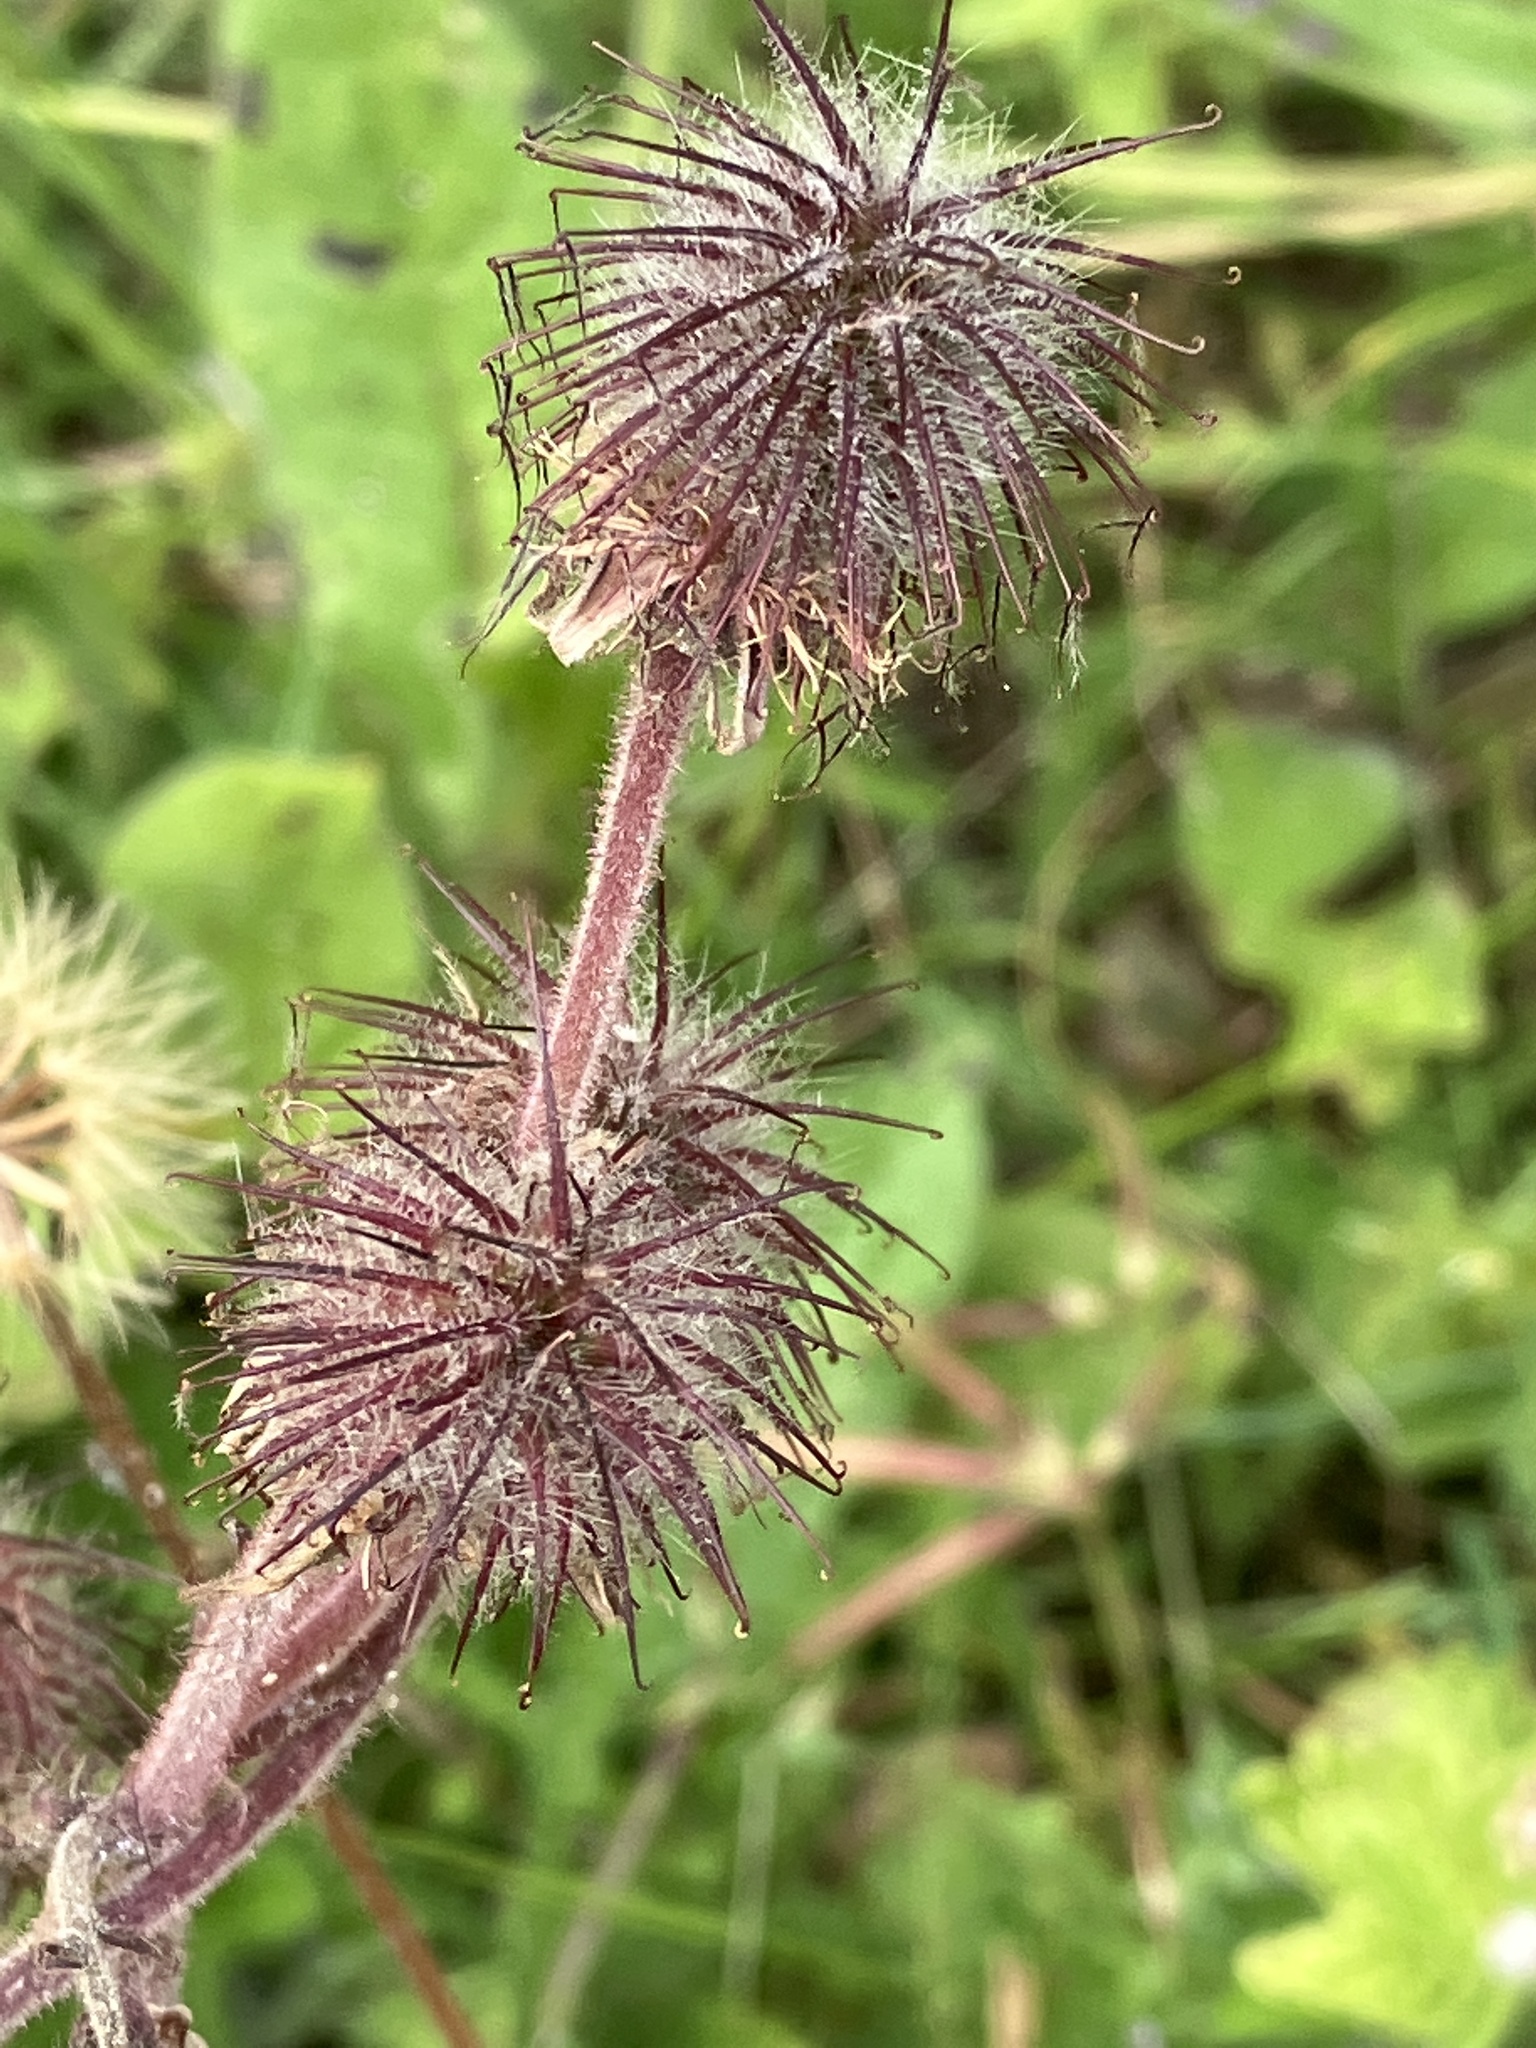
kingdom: Plantae
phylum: Tracheophyta
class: Magnoliopsida
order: Rosales
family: Rosaceae
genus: Geum
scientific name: Geum rivale
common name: Water avens
